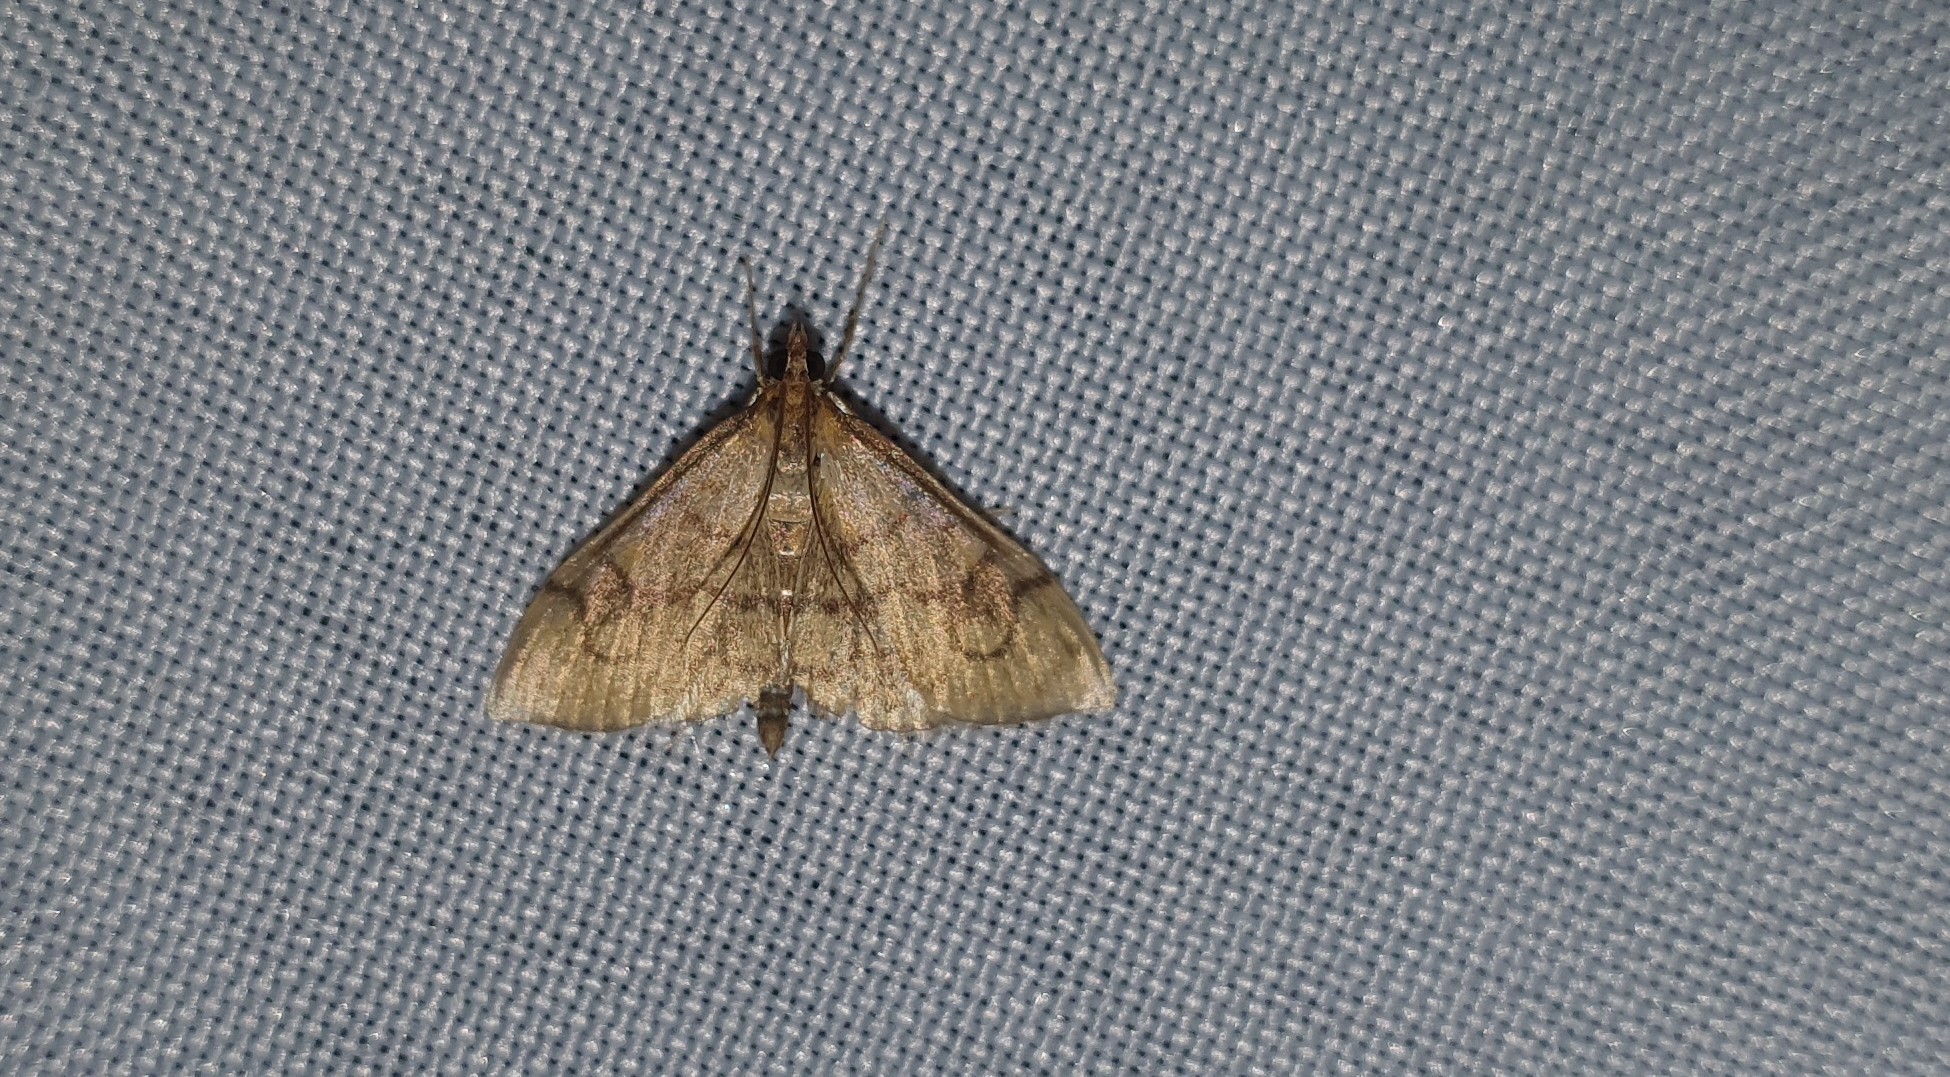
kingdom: Animalia
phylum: Arthropoda
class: Insecta
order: Lepidoptera
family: Crambidae
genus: Anania
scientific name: Anania verbascalis
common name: Golden pearl
